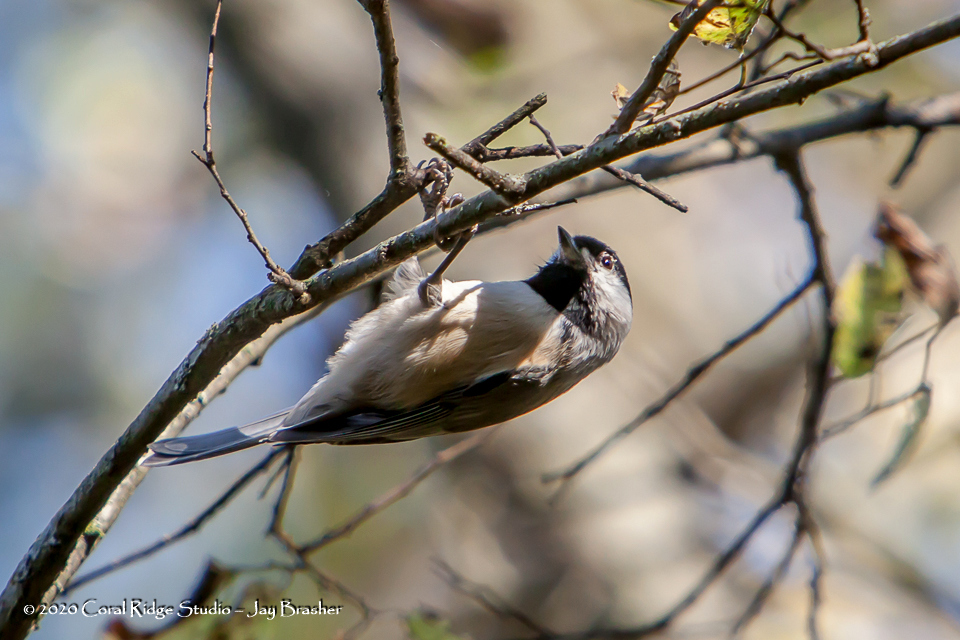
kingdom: Animalia
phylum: Chordata
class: Aves
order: Passeriformes
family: Paridae
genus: Poecile
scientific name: Poecile carolinensis
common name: Carolina chickadee
